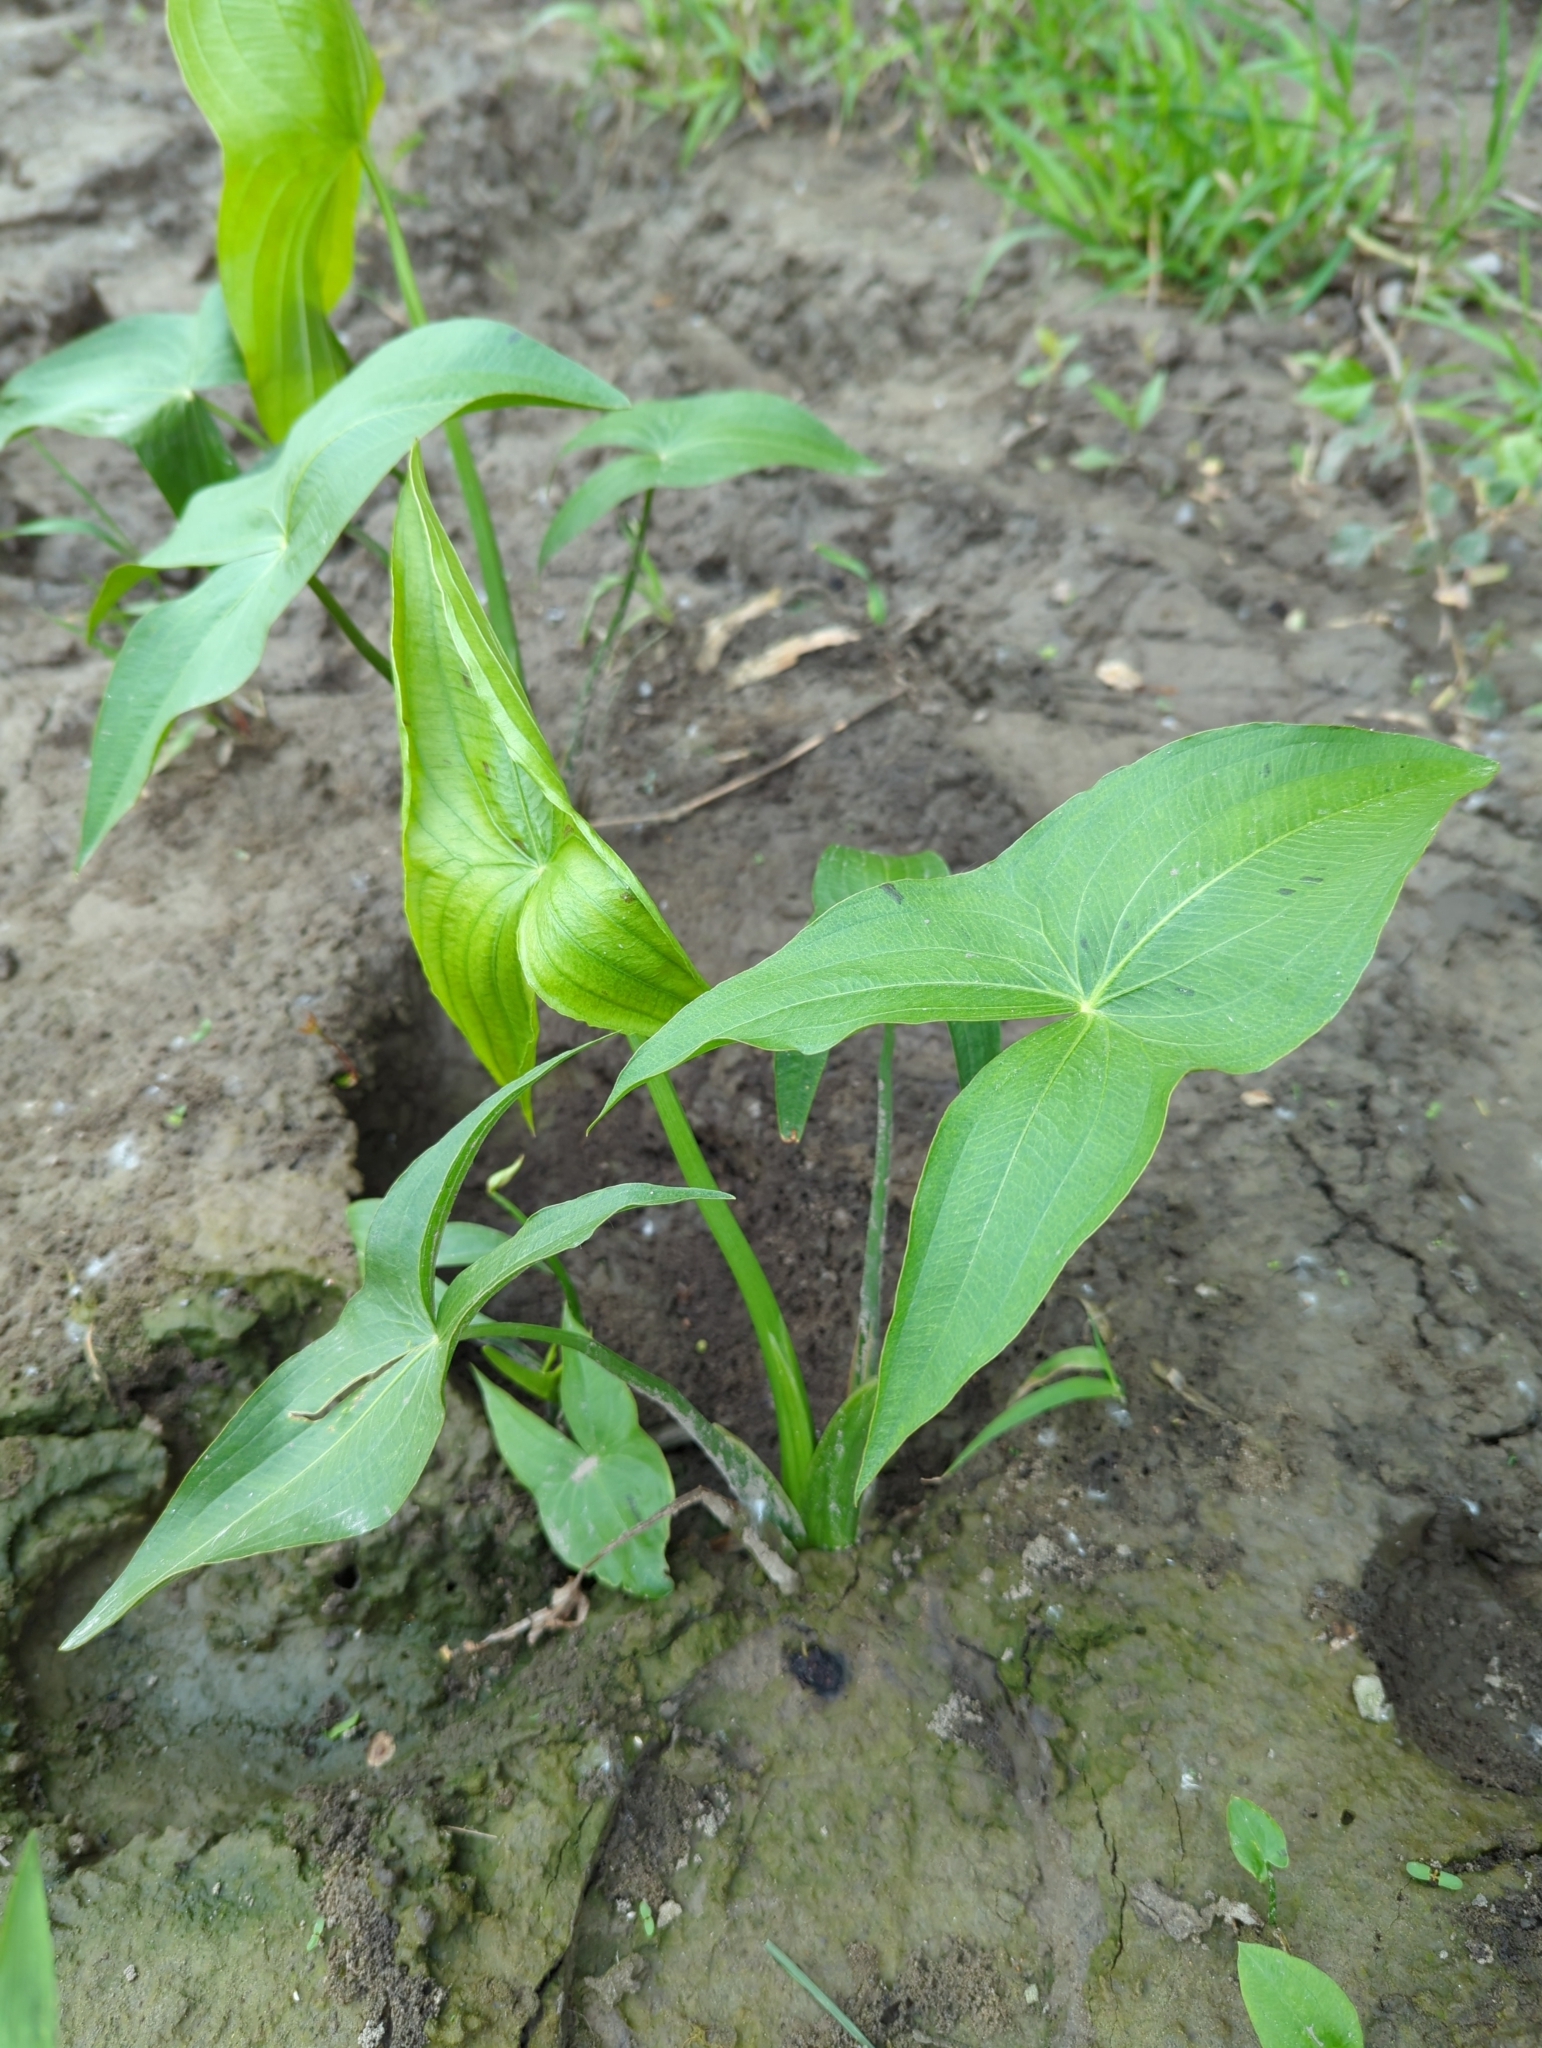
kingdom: Plantae
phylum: Tracheophyta
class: Liliopsida
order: Alismatales
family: Alismataceae
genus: Sagittaria
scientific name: Sagittaria latifolia
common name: Duck-potato
